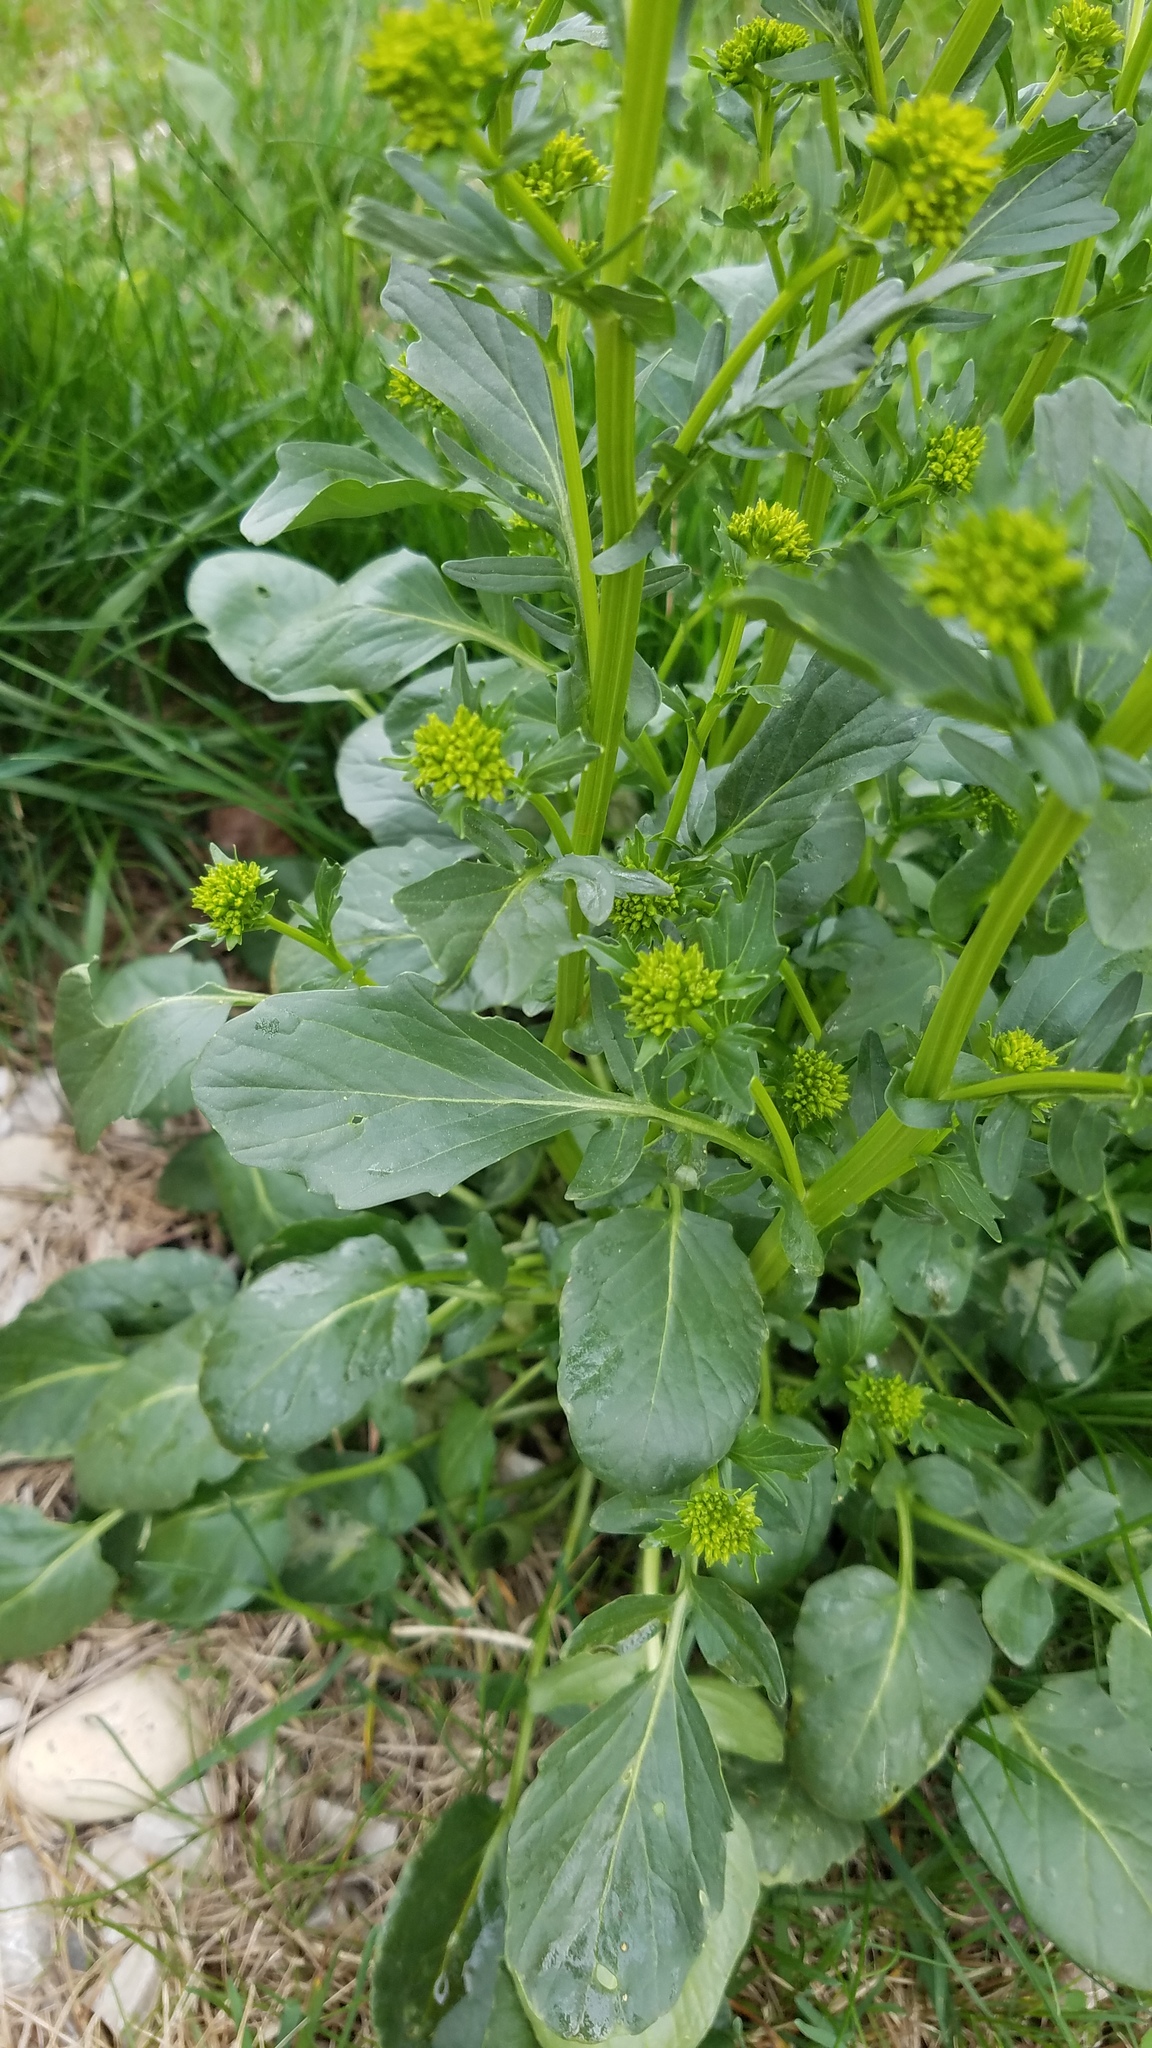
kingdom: Plantae
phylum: Tracheophyta
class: Magnoliopsida
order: Brassicales
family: Brassicaceae
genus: Barbarea
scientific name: Barbarea vulgaris
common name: Cressy-greens
